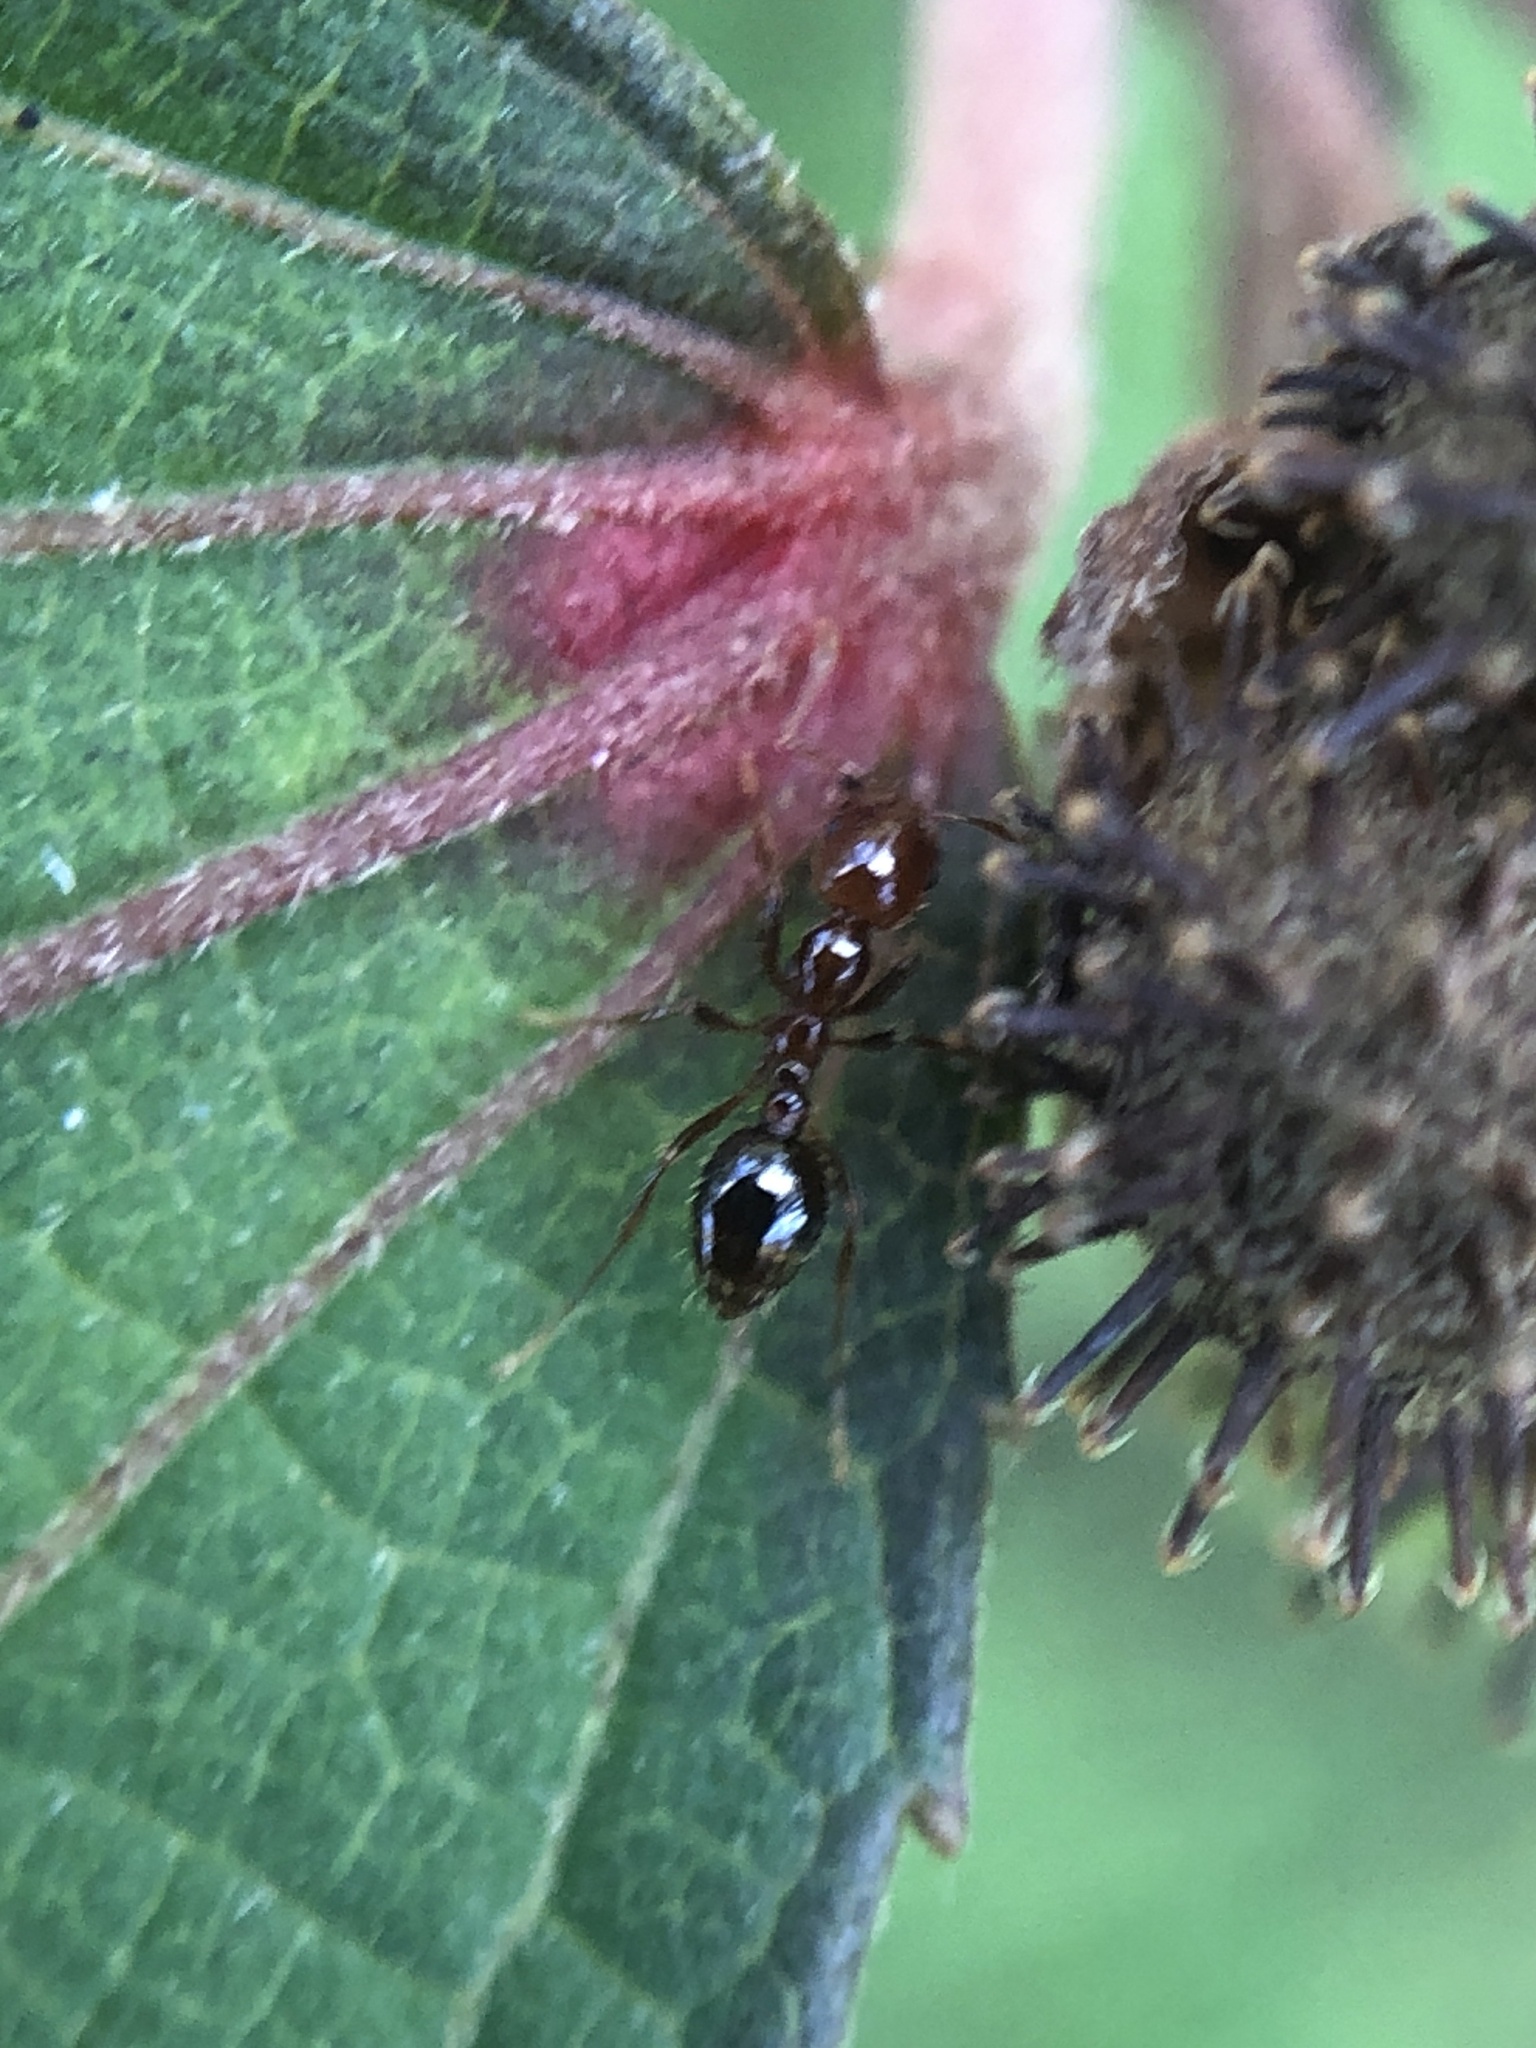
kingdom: Animalia
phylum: Arthropoda
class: Insecta
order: Hymenoptera
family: Formicidae
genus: Solenopsis
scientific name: Solenopsis invicta
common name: Red imported fire ant
